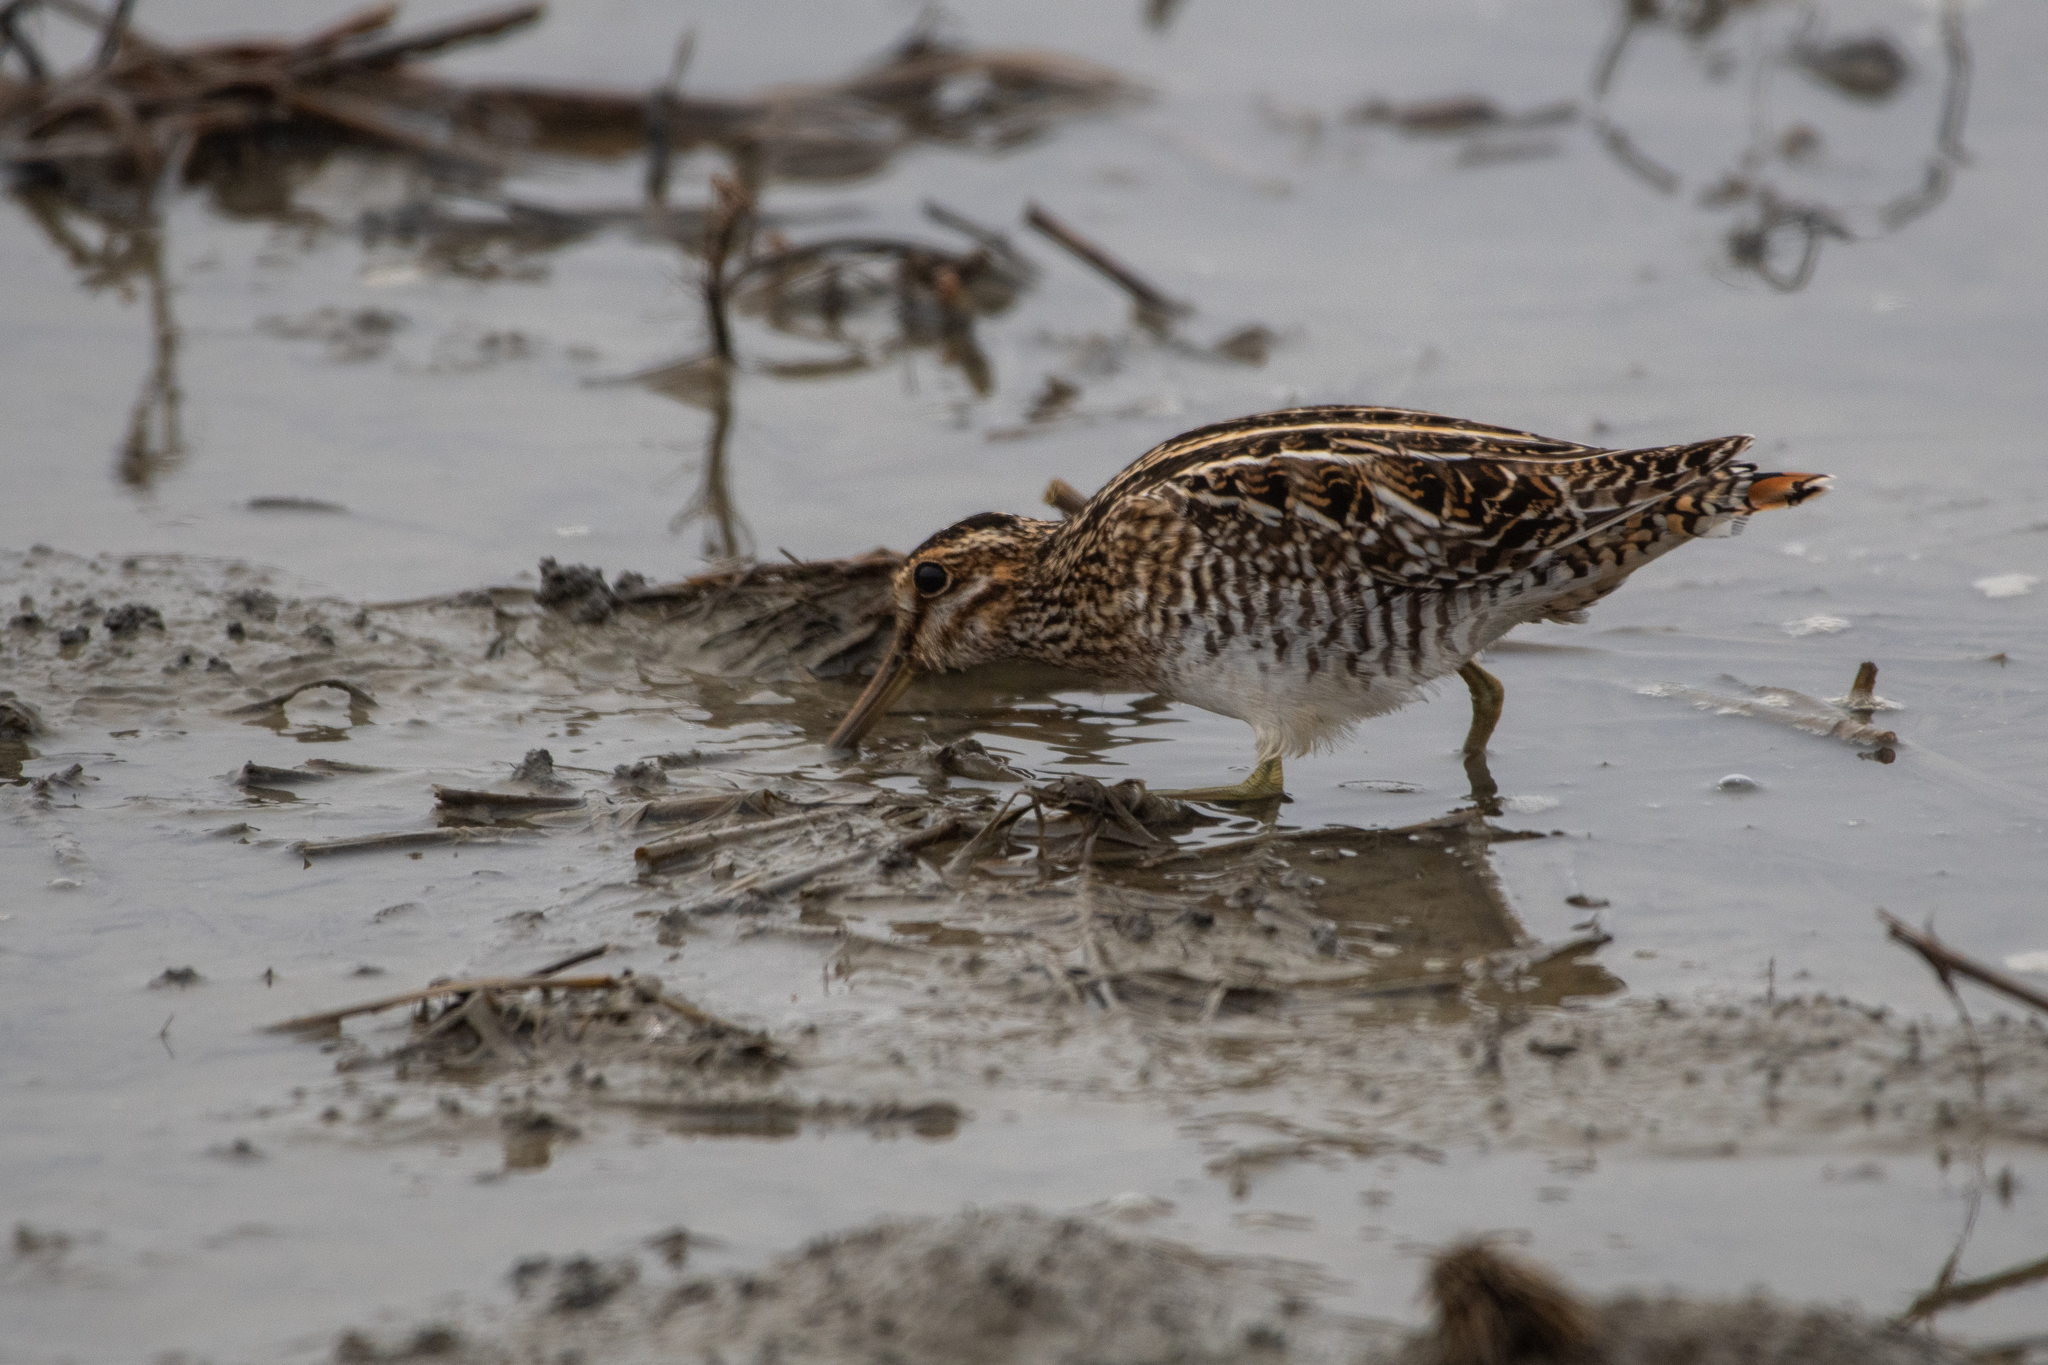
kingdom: Animalia
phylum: Chordata
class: Aves
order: Charadriiformes
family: Scolopacidae
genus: Gallinago
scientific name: Gallinago delicata
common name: Wilson's snipe
